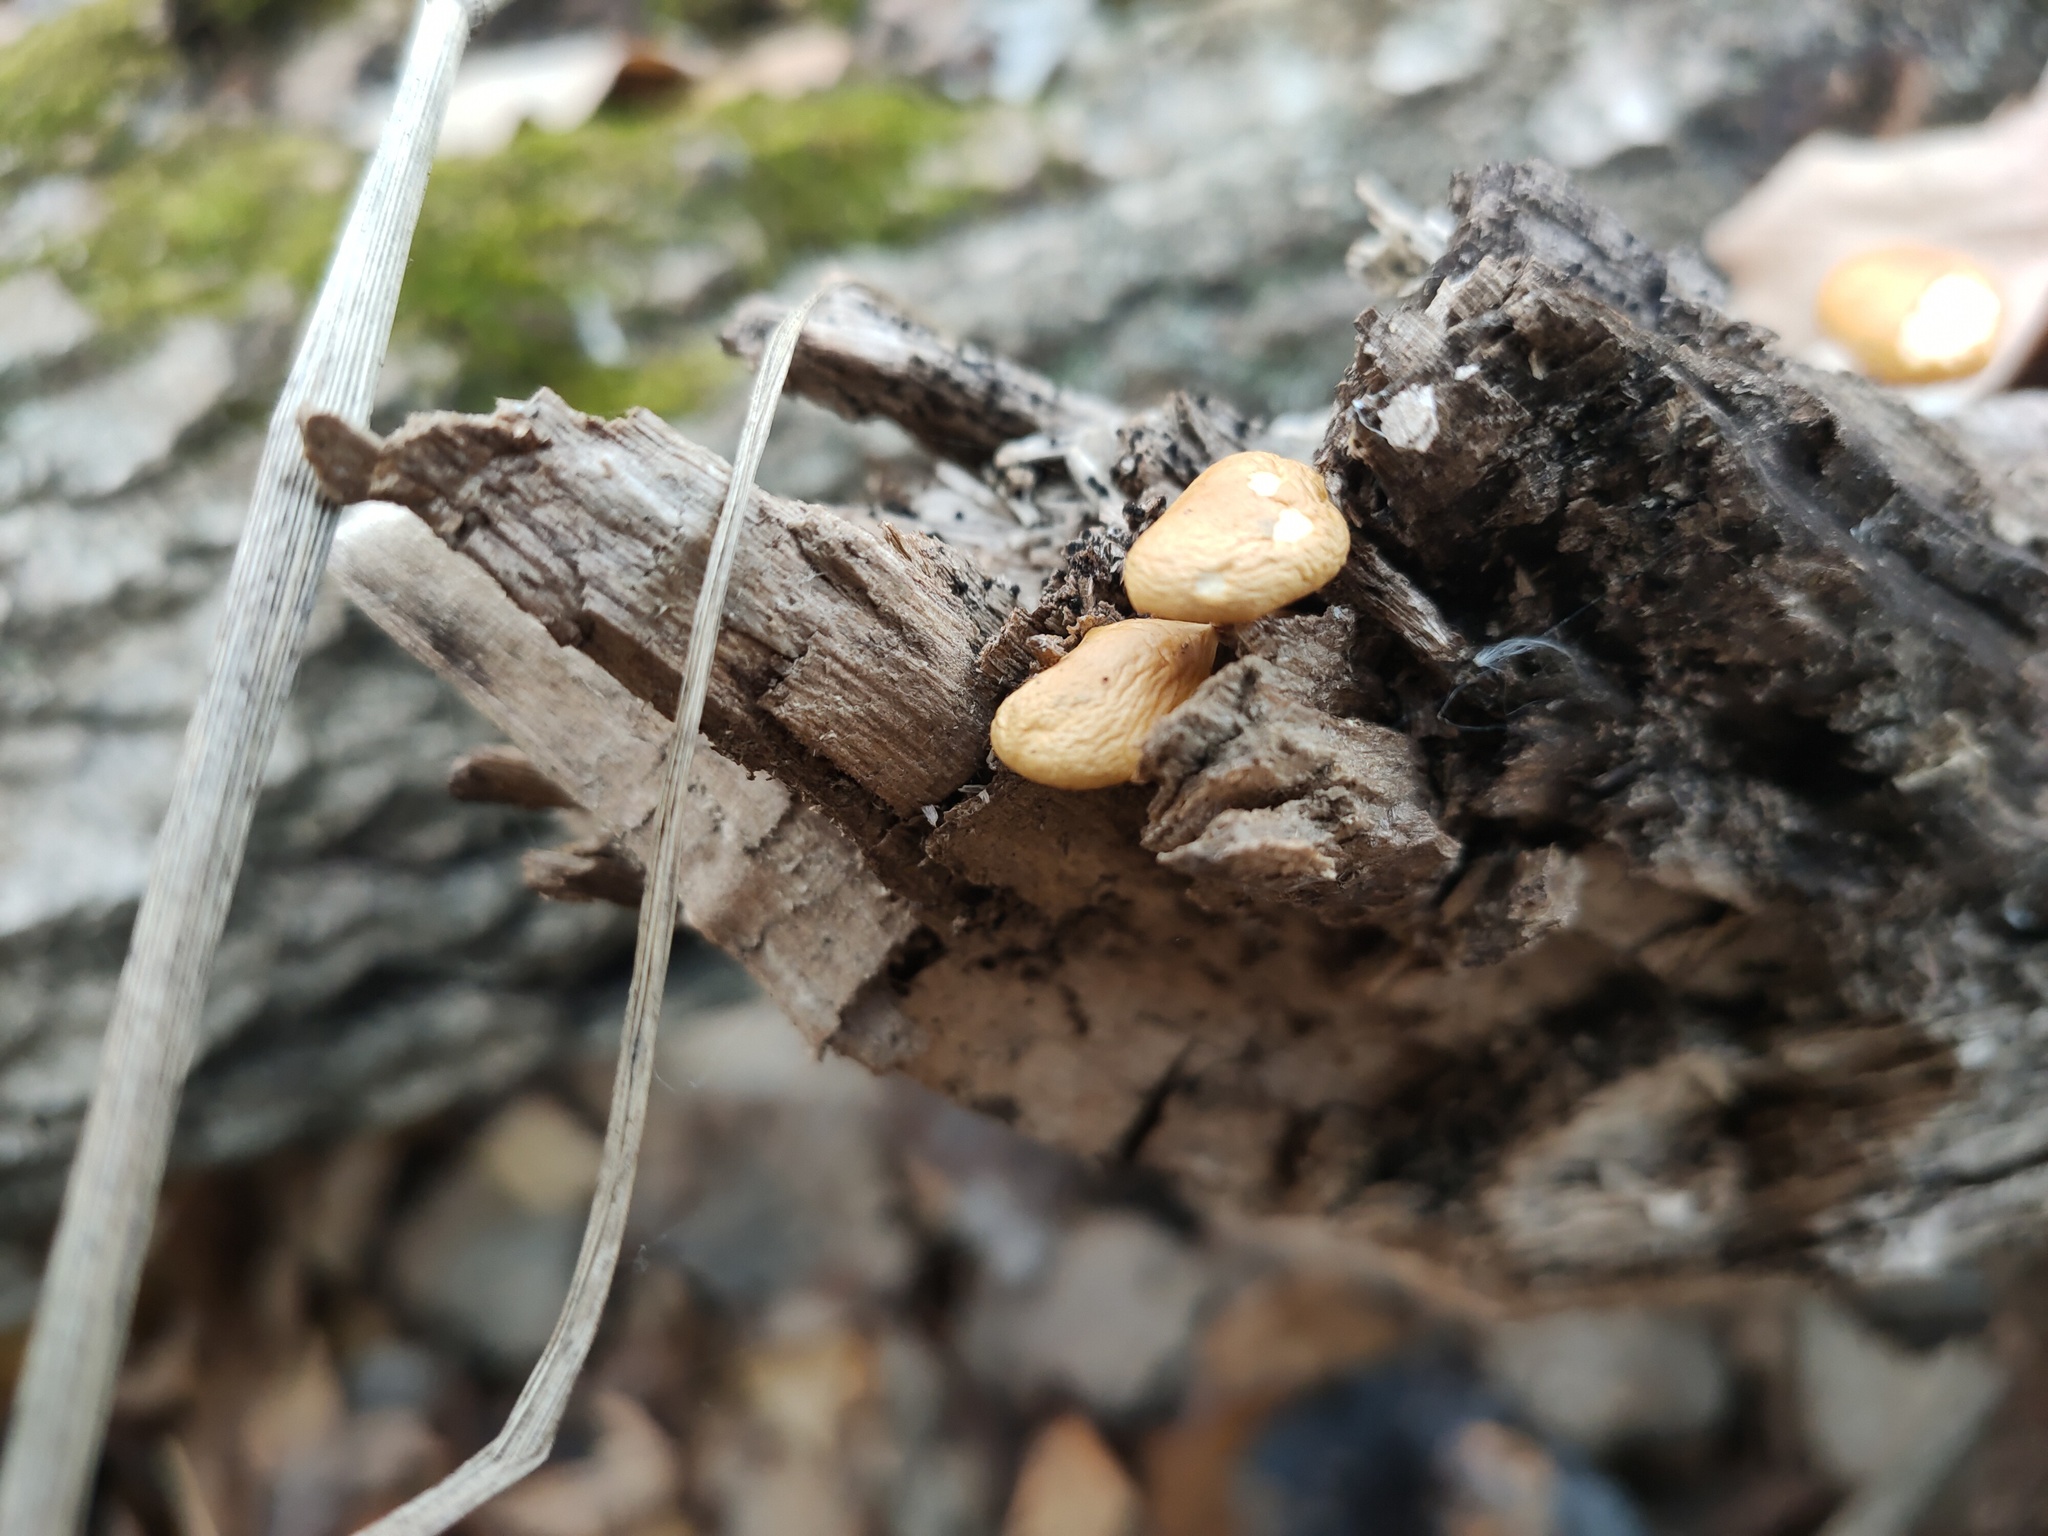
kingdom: Fungi
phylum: Basidiomycota
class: Agaricomycetes
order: Agaricales
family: Physalacriaceae
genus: Flammulina
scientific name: Flammulina
